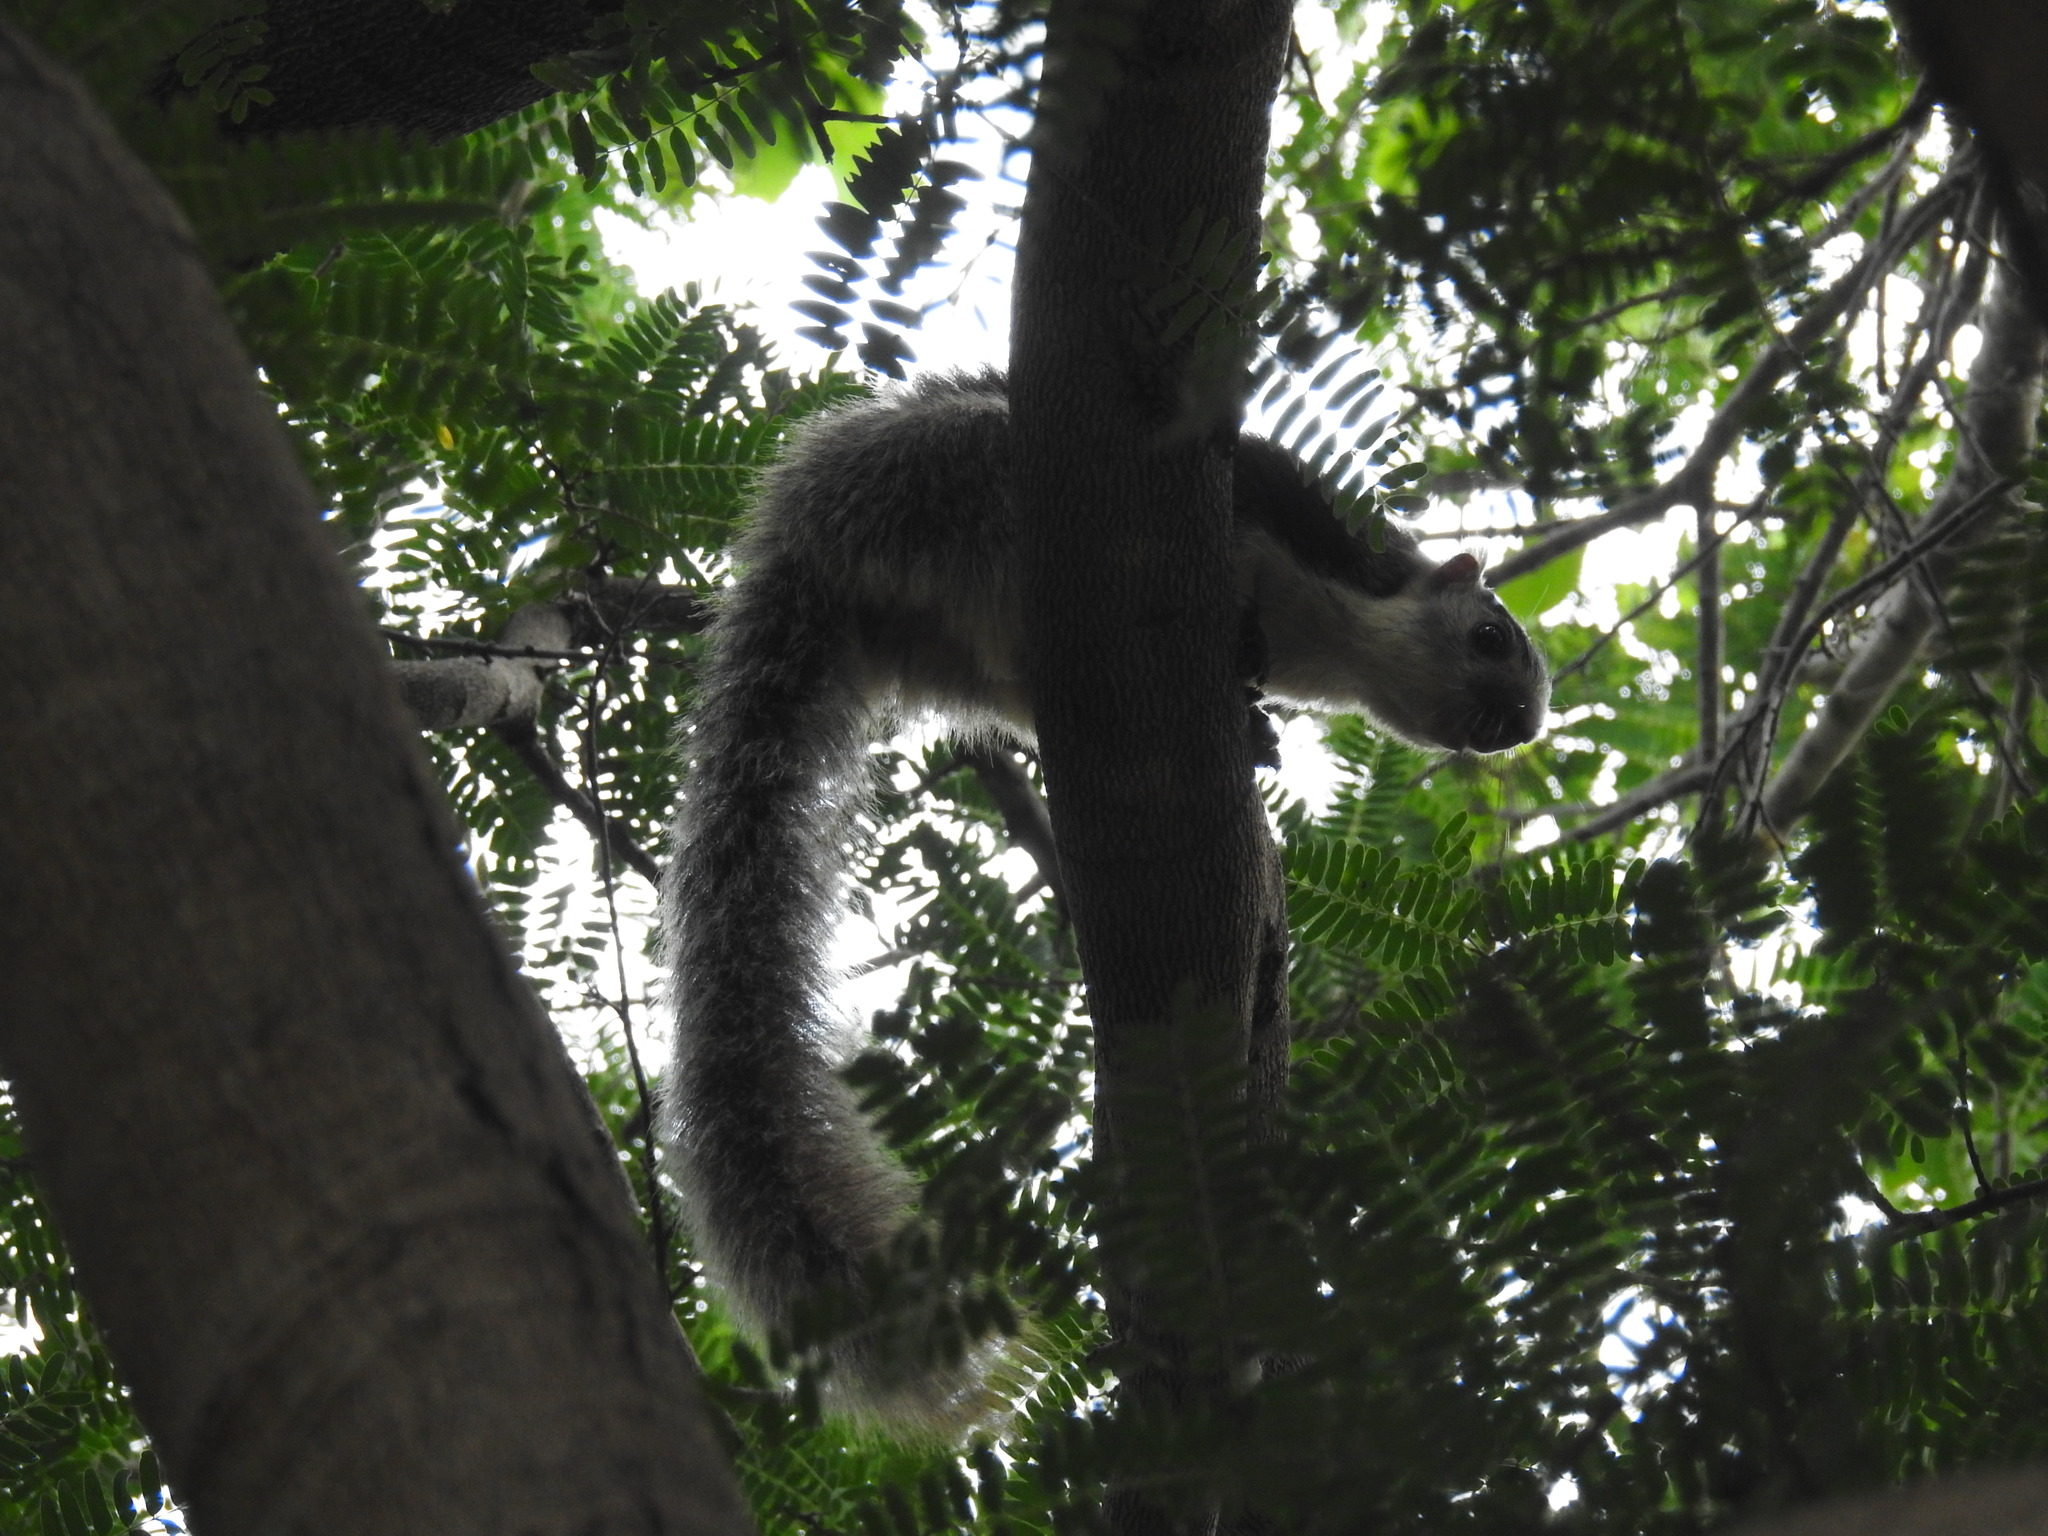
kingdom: Animalia
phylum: Chordata
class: Mammalia
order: Rodentia
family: Sciuridae
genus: Ratufa
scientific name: Ratufa macroura
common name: Sri lankan giant squirrel
